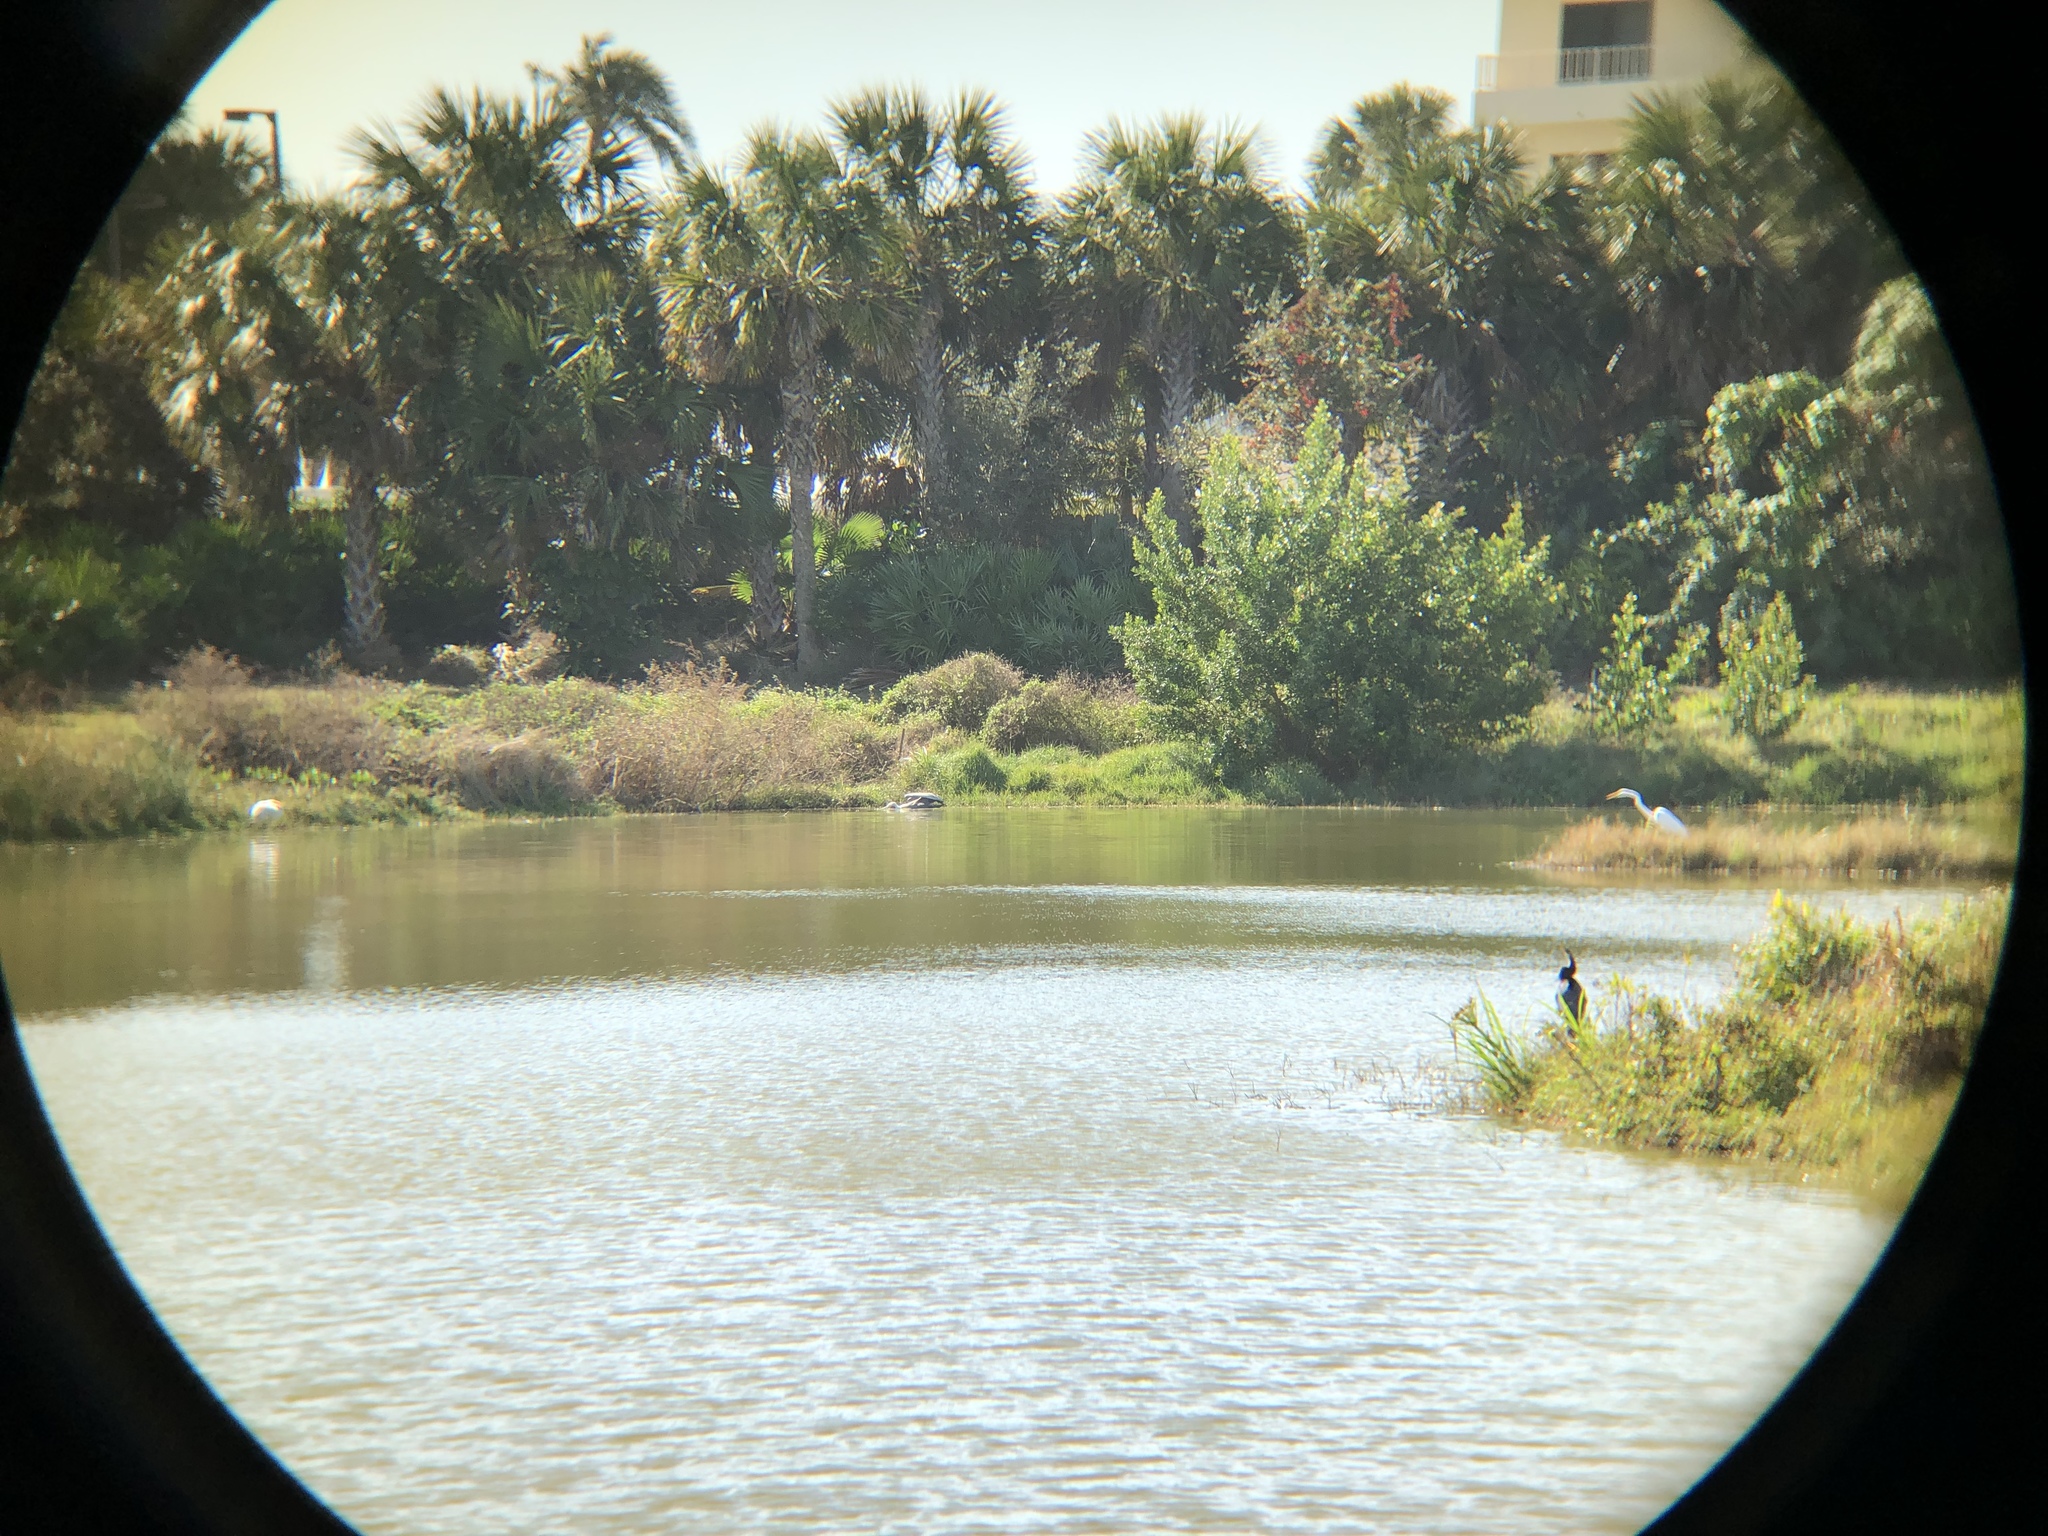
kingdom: Animalia
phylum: Chordata
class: Aves
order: Pelecaniformes
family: Pelecanidae
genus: Pelecanus
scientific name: Pelecanus occidentalis
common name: Brown pelican
